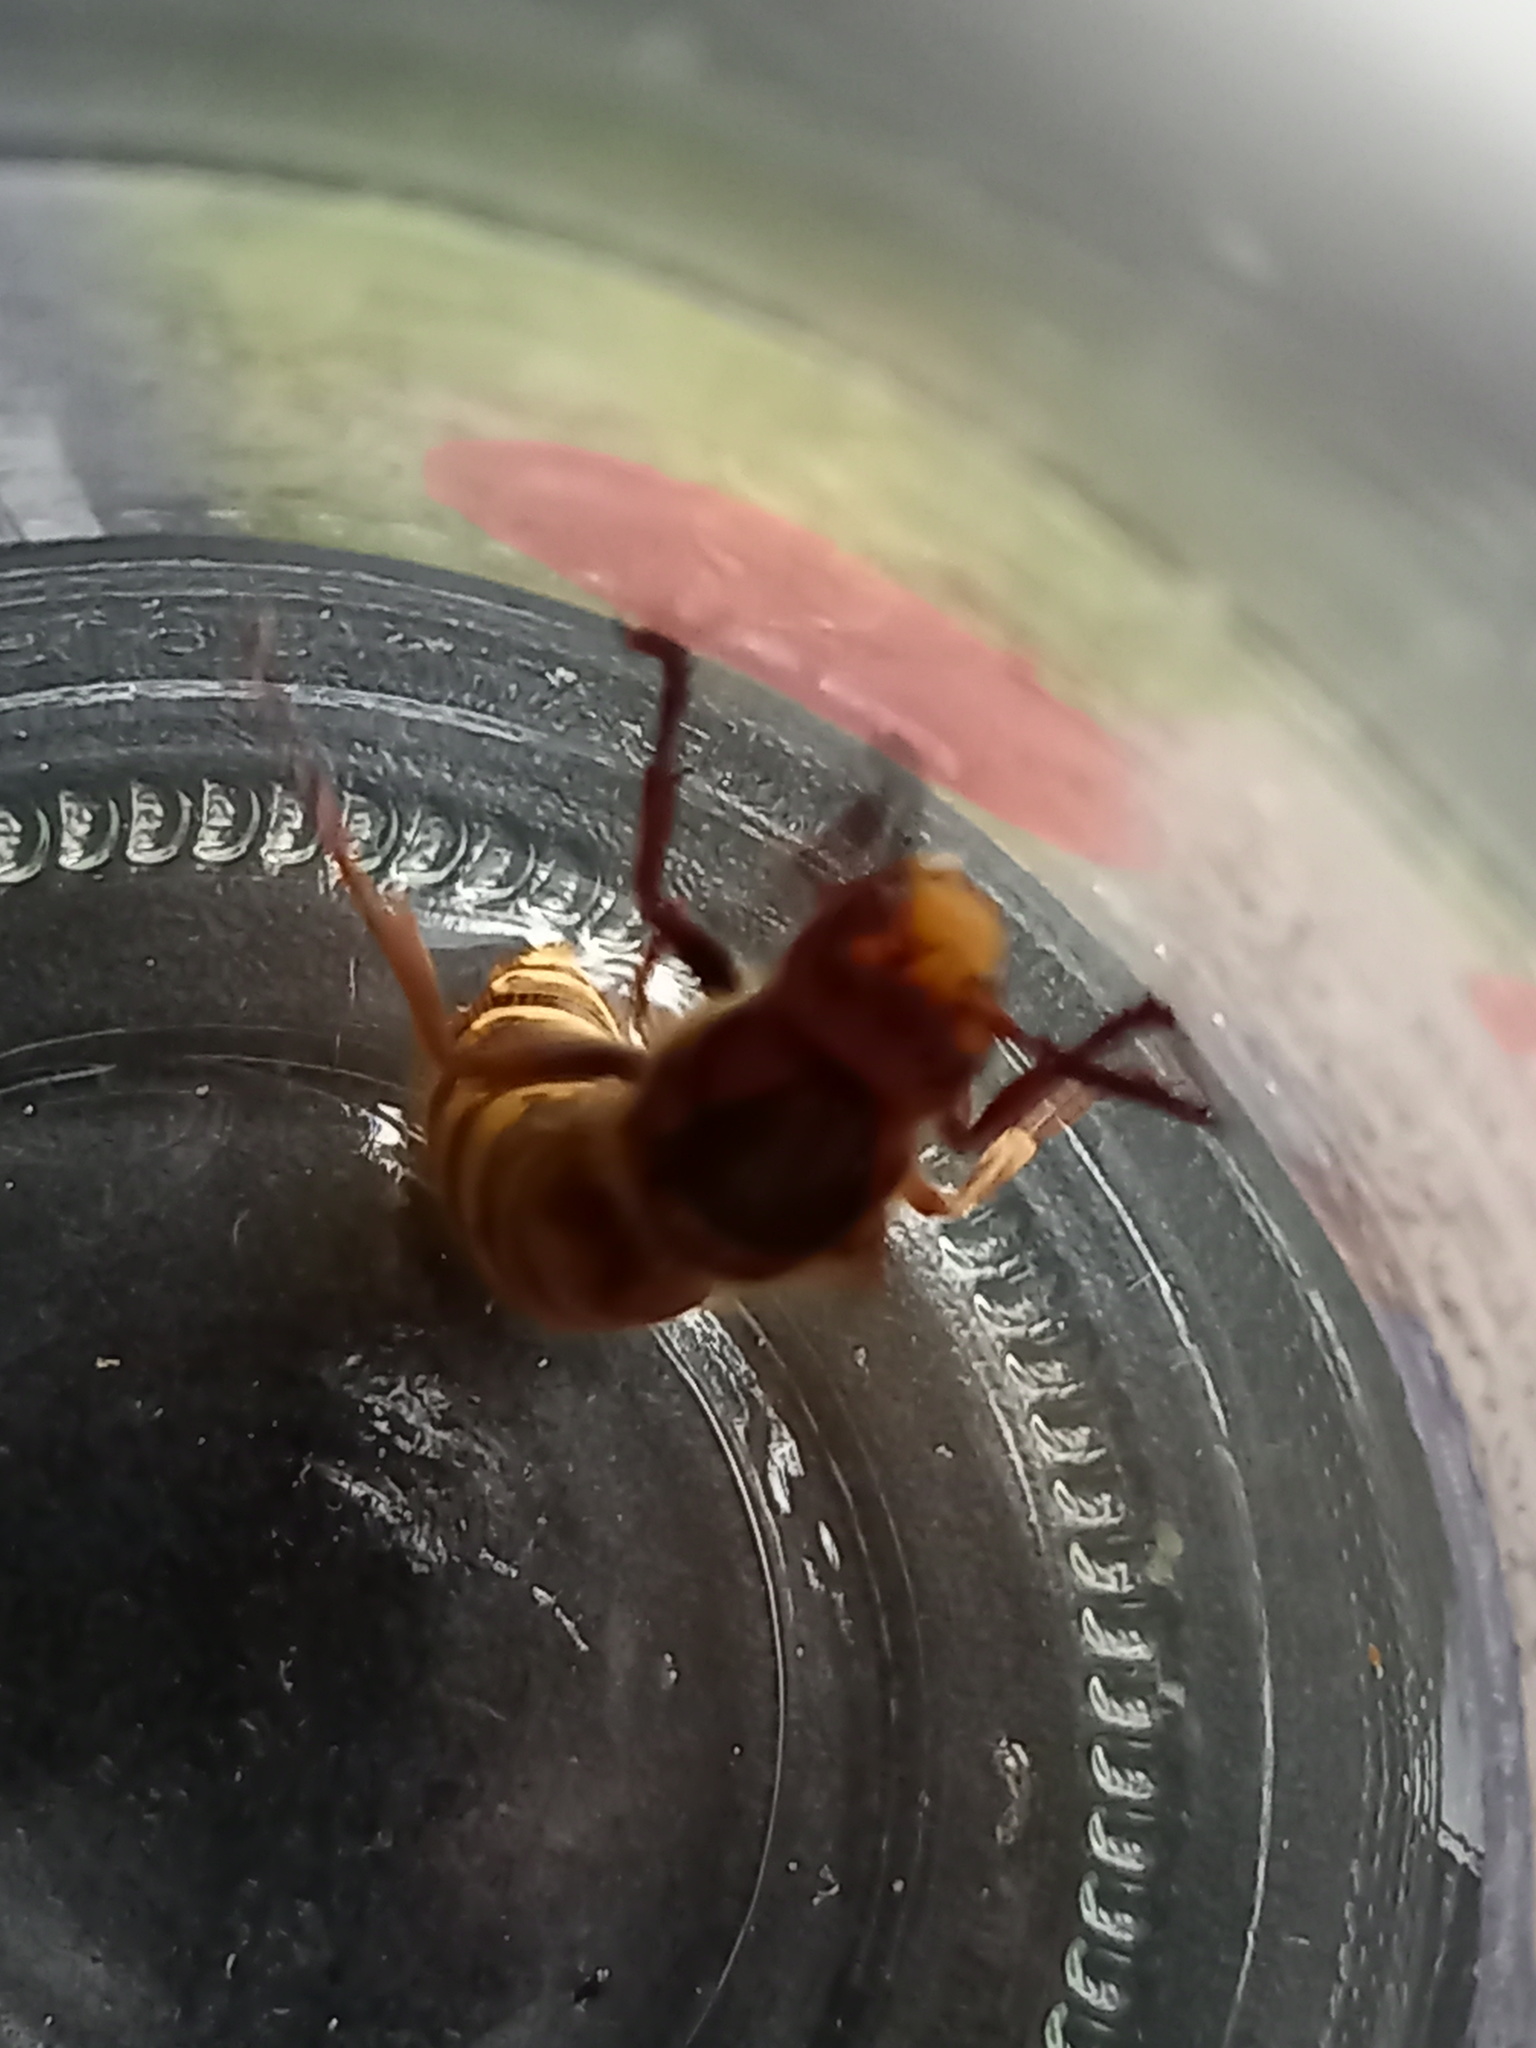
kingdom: Animalia
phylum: Arthropoda
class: Insecta
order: Hymenoptera
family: Vespidae
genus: Vespa
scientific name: Vespa crabro
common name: Hornet
